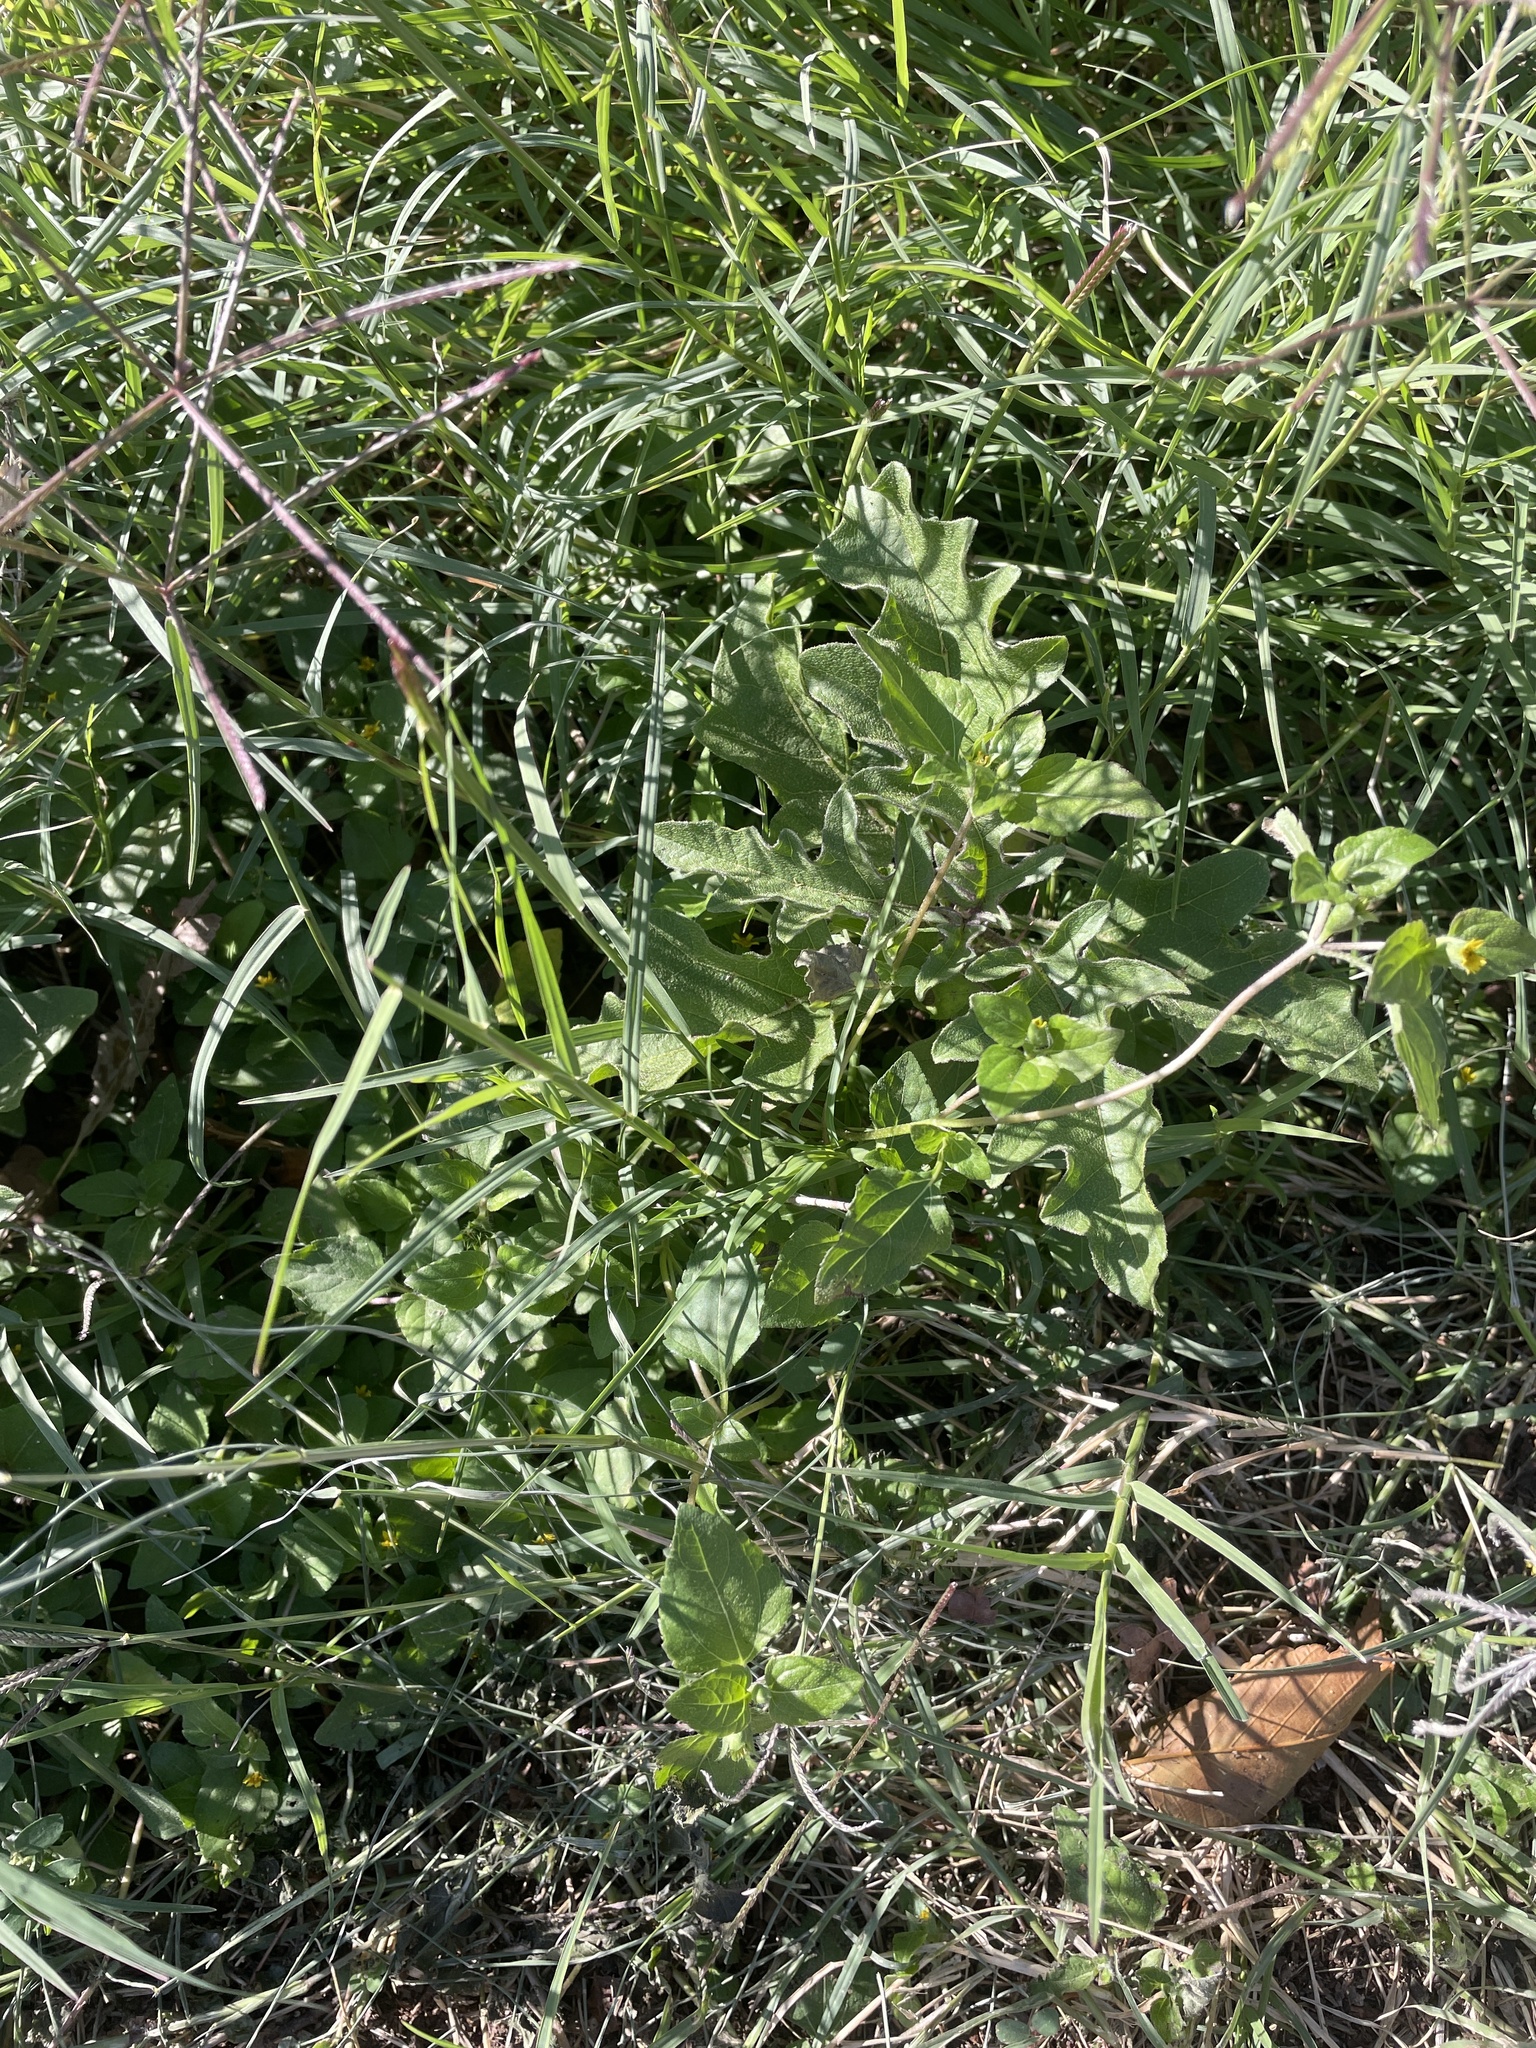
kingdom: Plantae
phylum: Tracheophyta
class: Magnoliopsida
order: Asterales
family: Asteraceae
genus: Calyptocarpus
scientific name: Calyptocarpus vialis
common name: Straggler daisy
